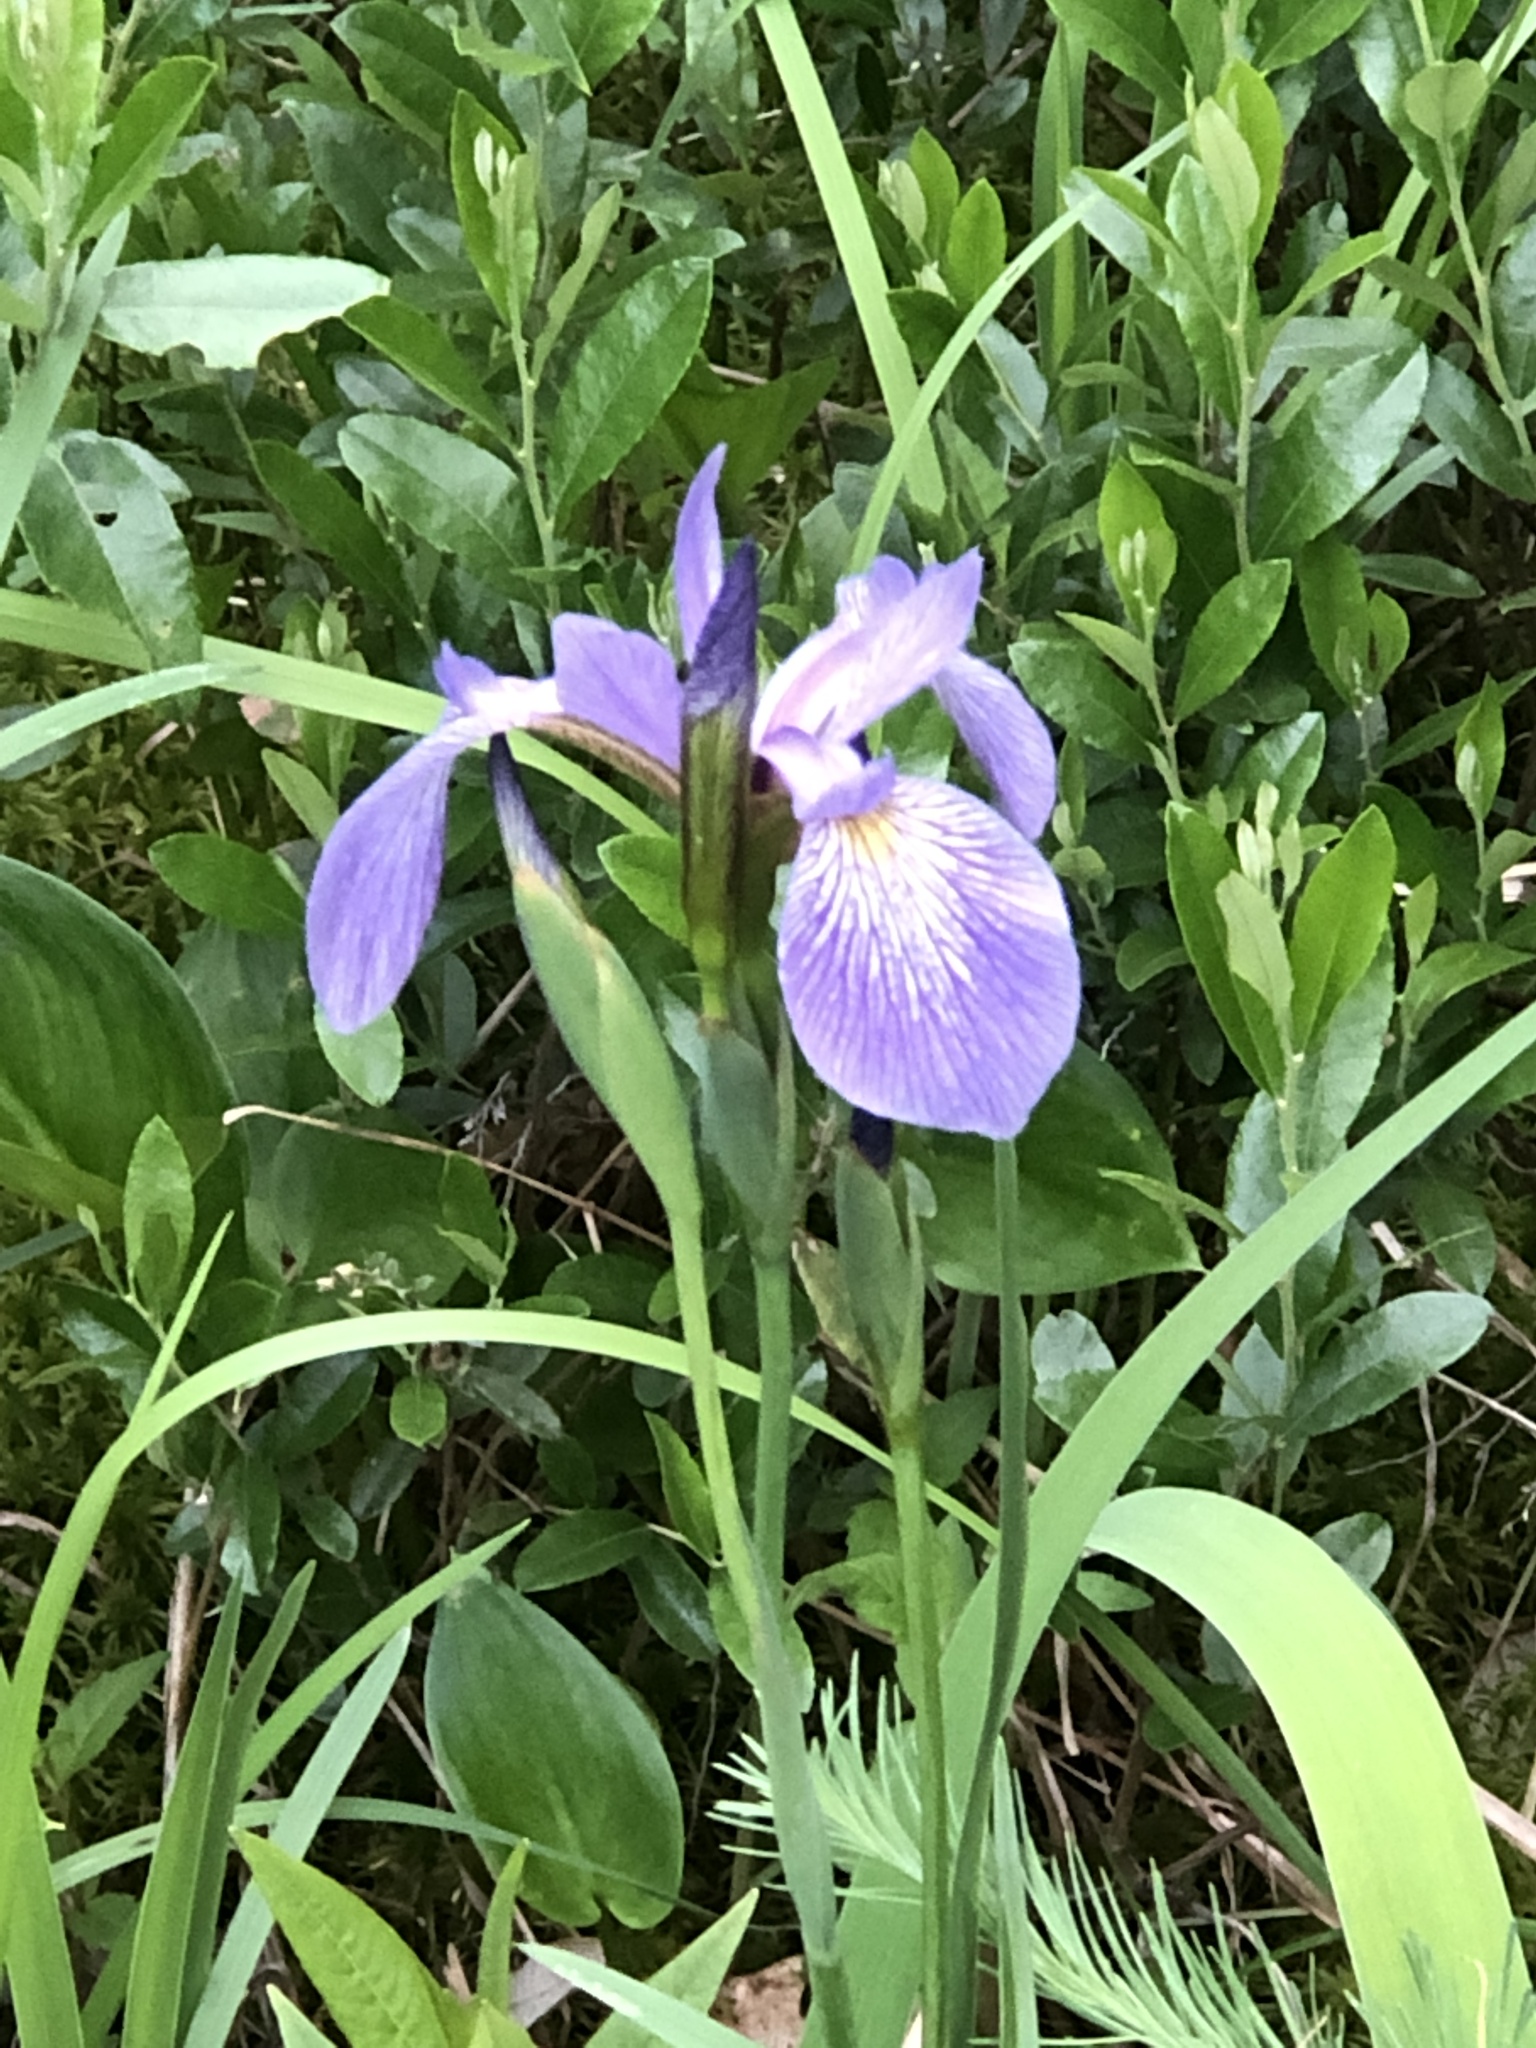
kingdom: Plantae
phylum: Tracheophyta
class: Liliopsida
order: Asparagales
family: Iridaceae
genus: Iris
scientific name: Iris versicolor
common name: Purple iris
